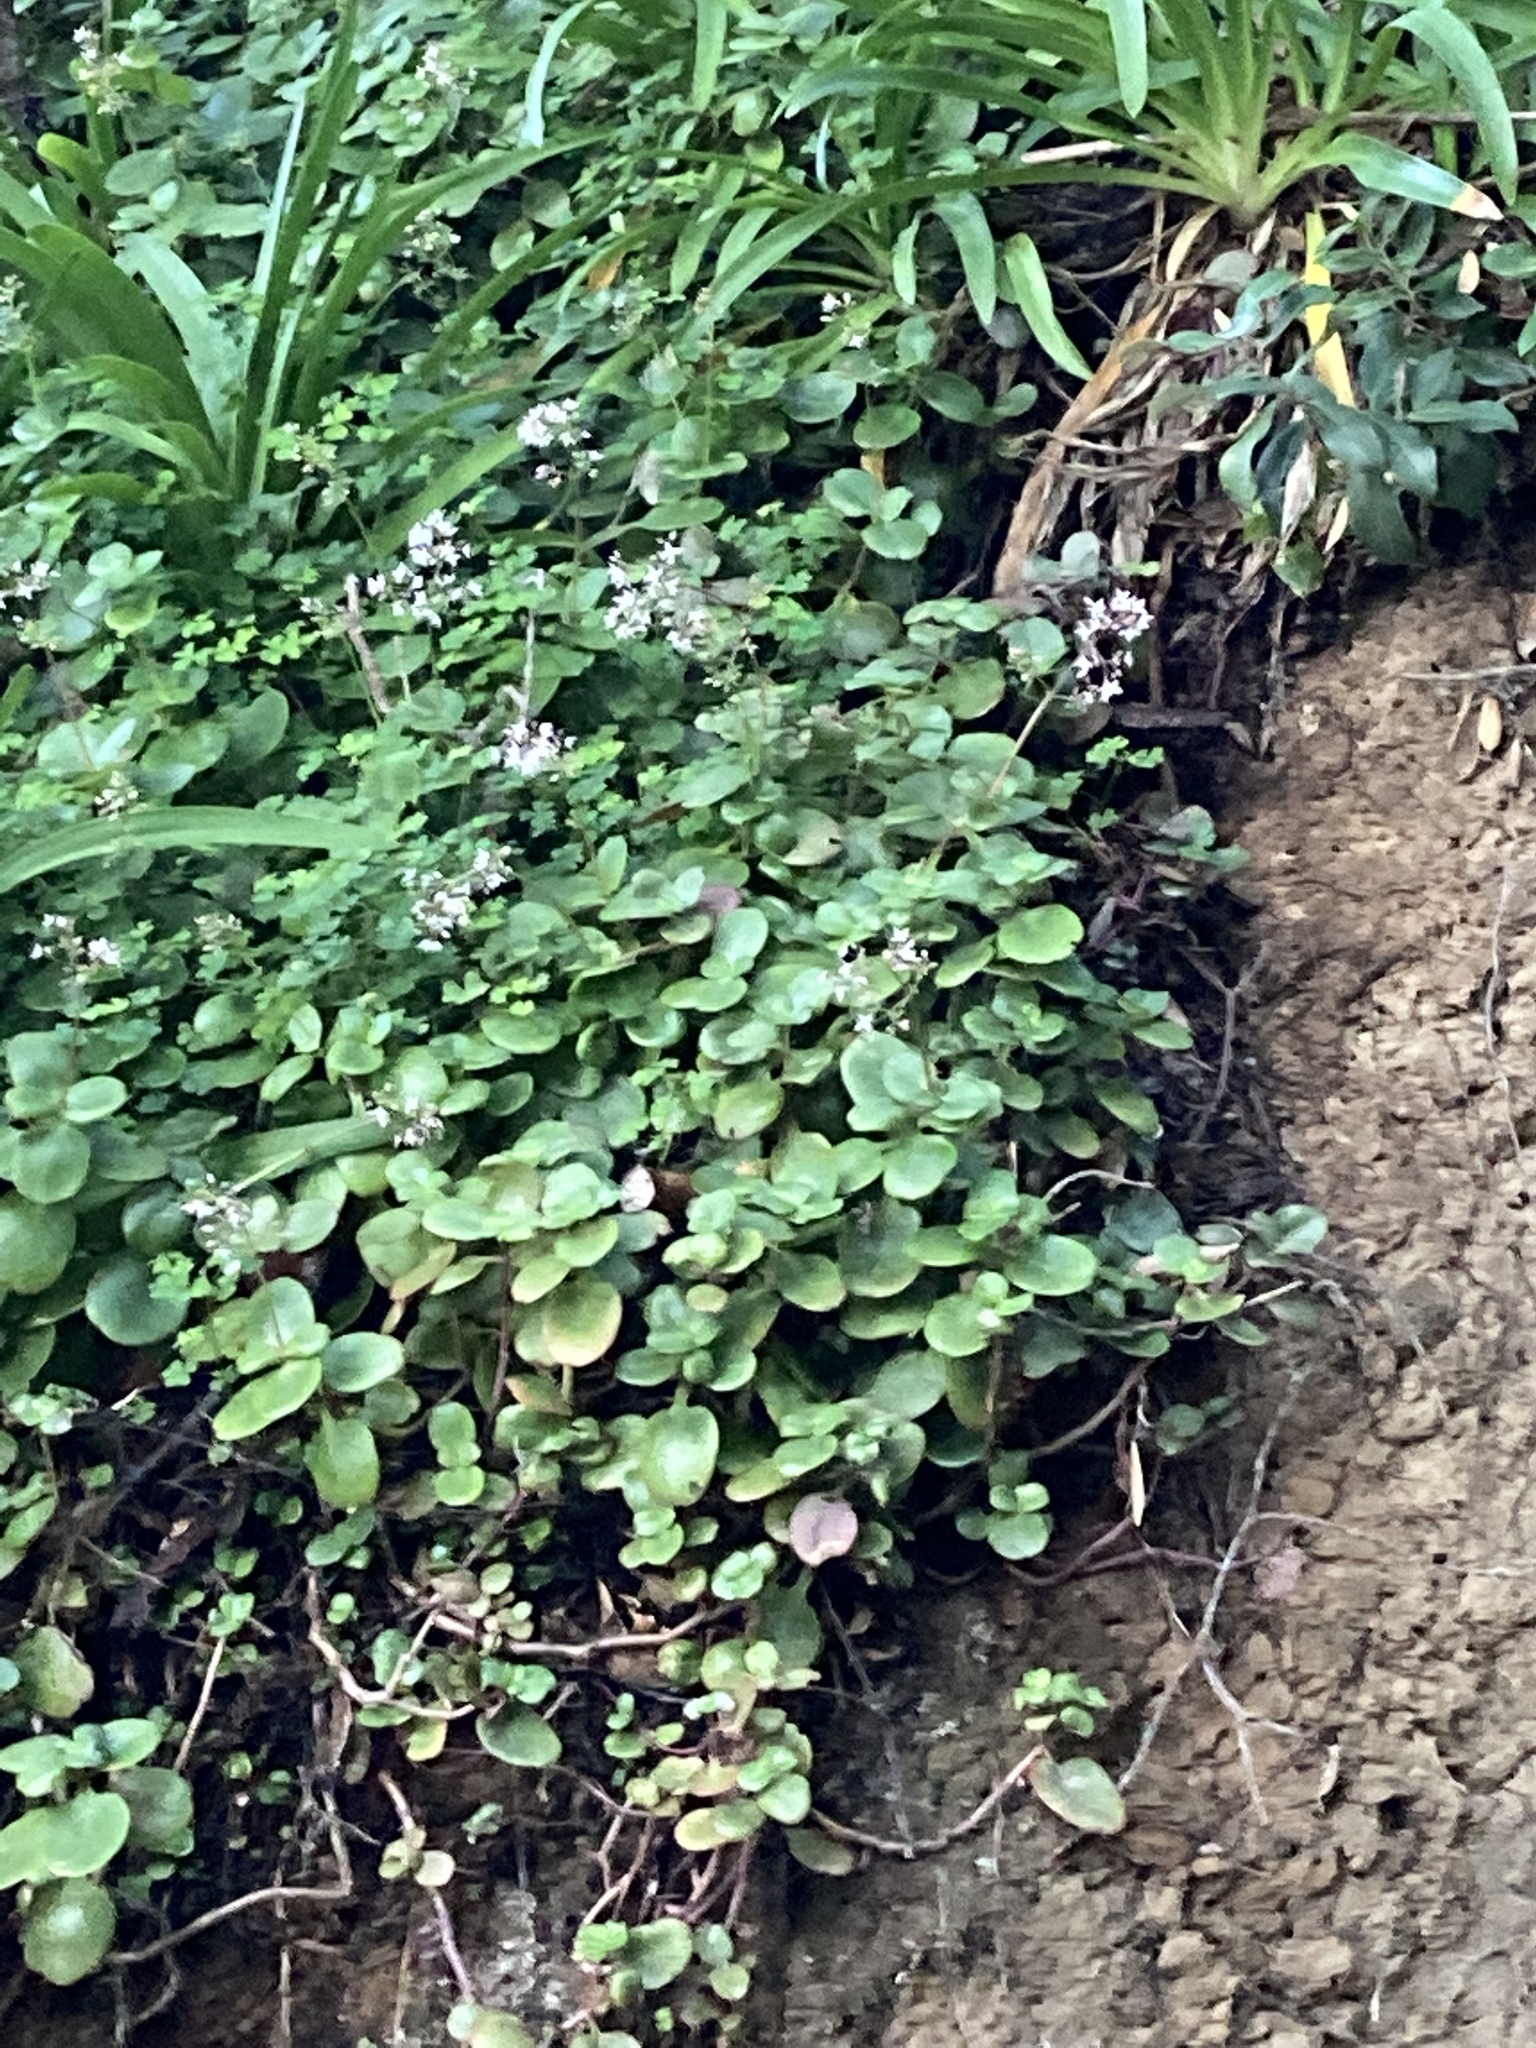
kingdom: Plantae
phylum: Tracheophyta
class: Magnoliopsida
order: Saxifragales
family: Crassulaceae
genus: Crassula
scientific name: Crassula multicava
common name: Cape province pygmyweed
